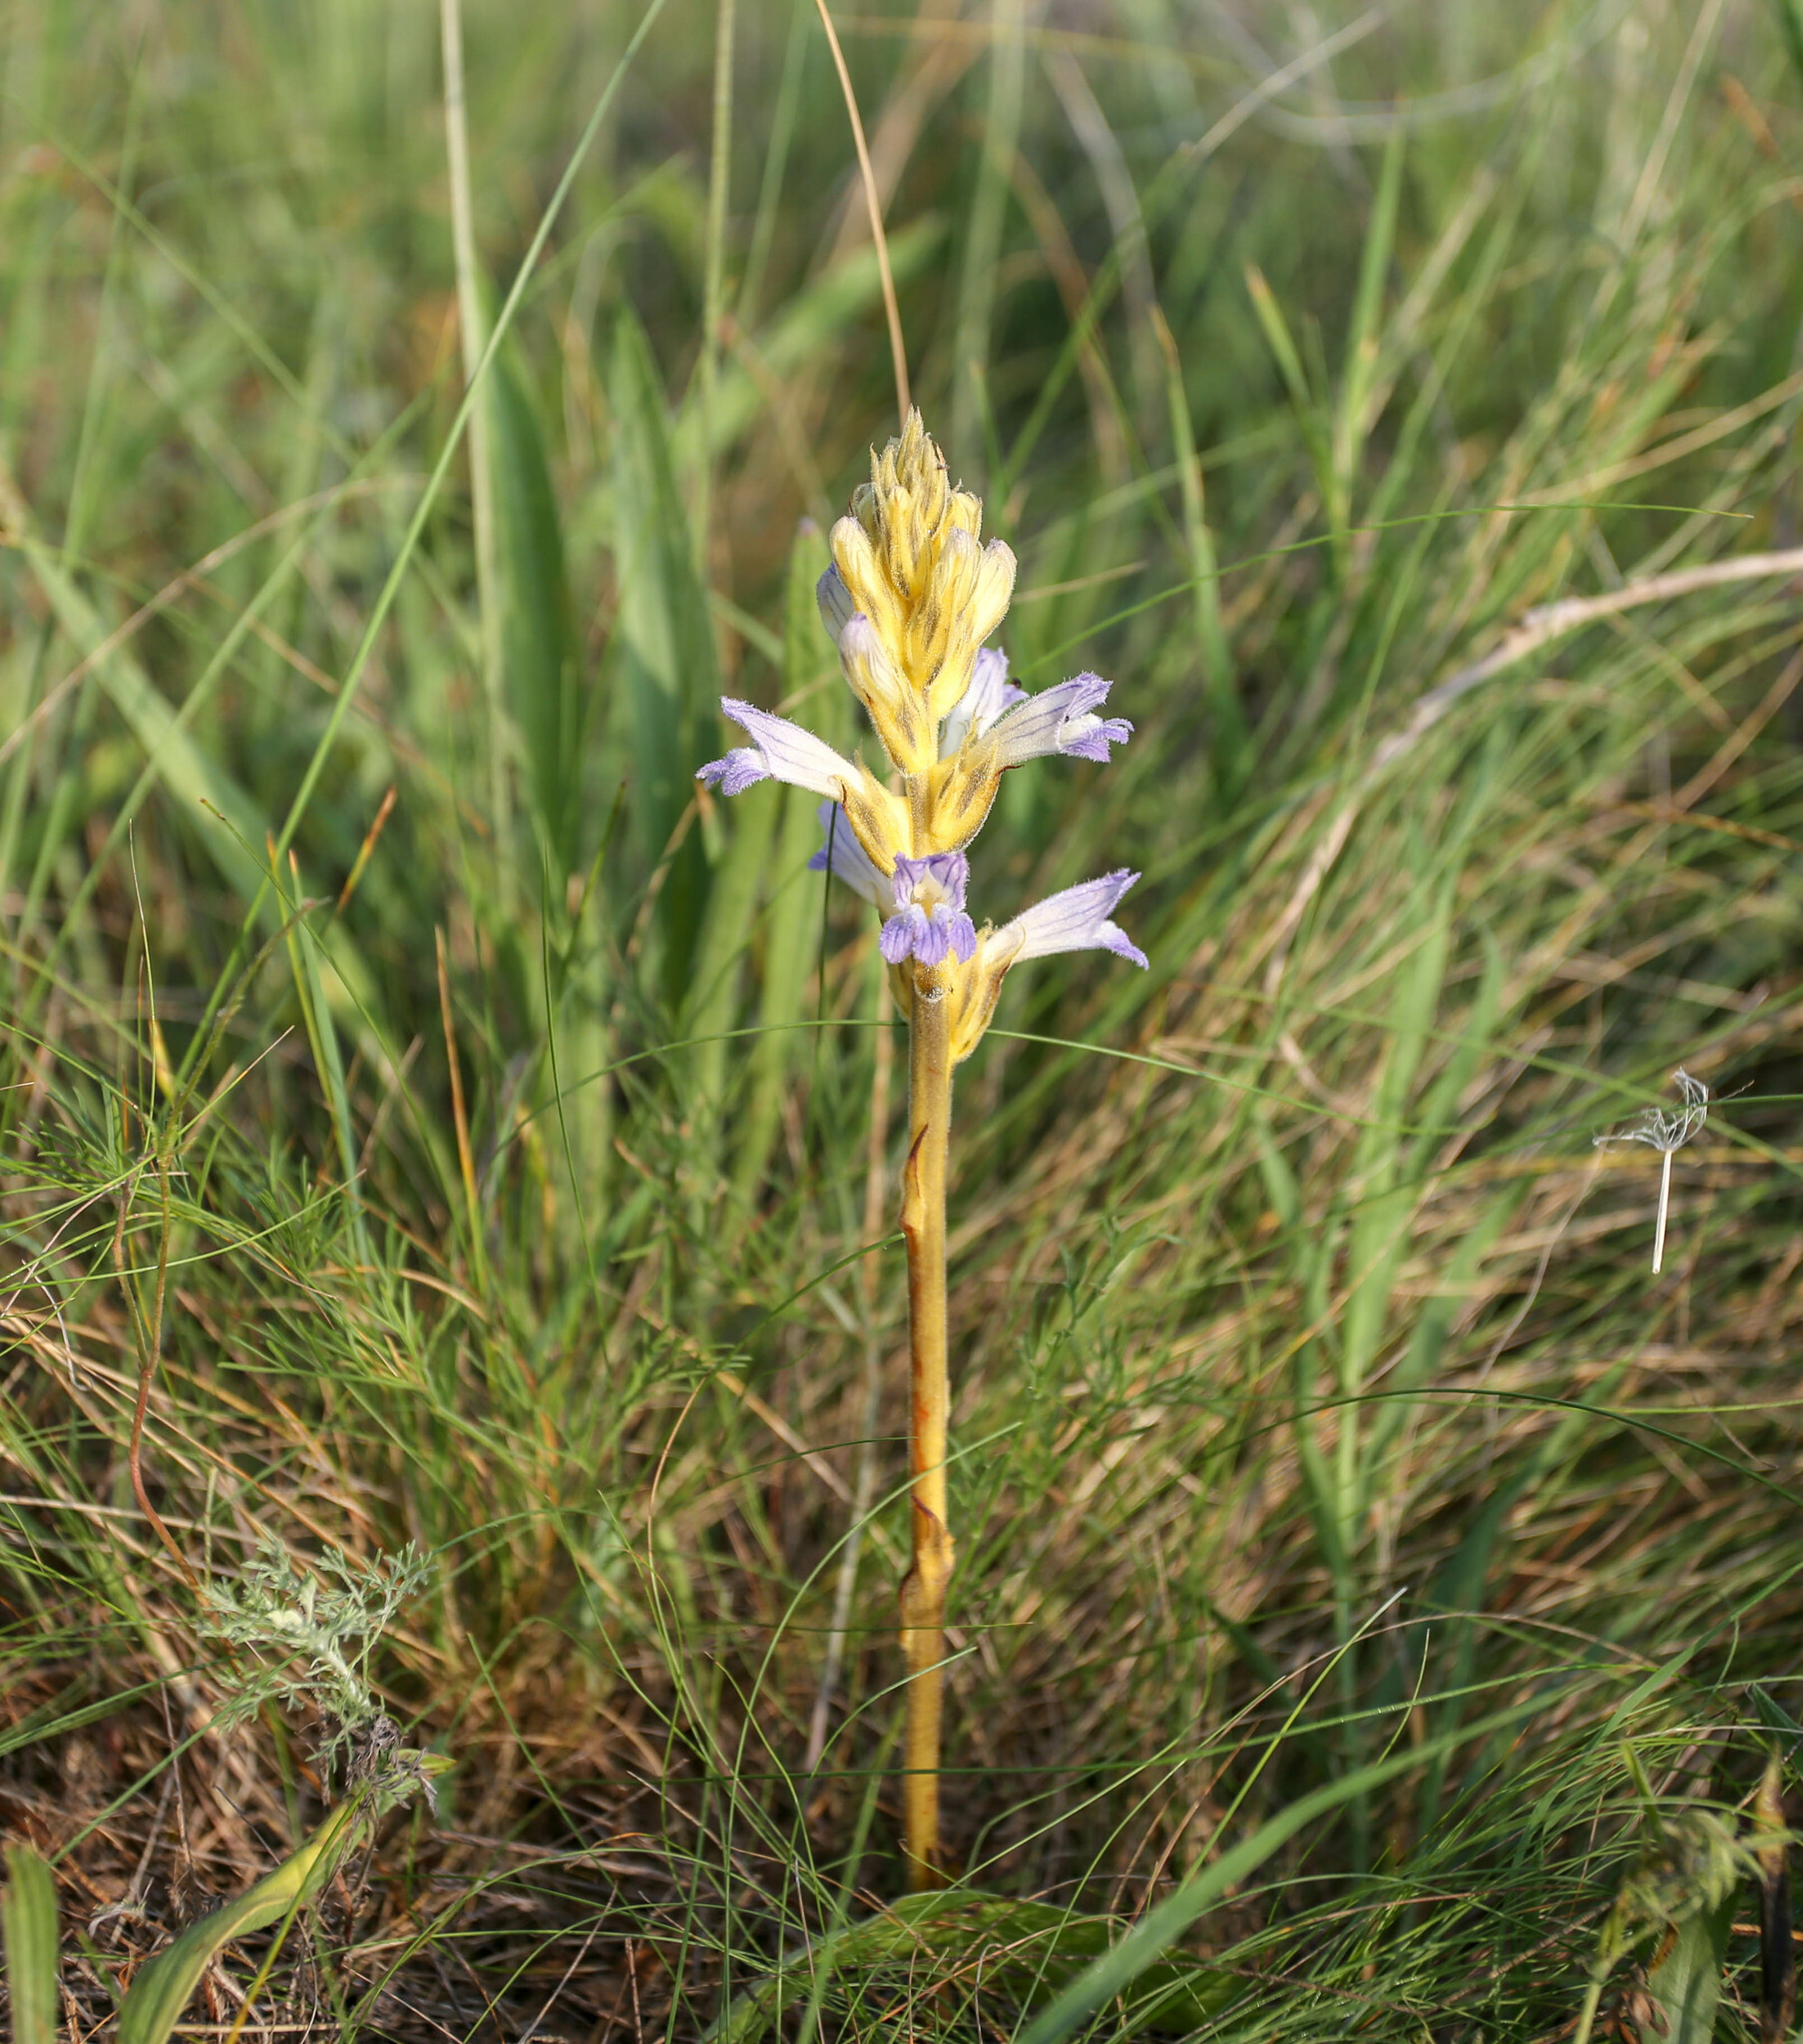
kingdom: Plantae
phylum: Tracheophyta
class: Magnoliopsida
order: Lamiales
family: Orobanchaceae
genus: Phelipanche
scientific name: Phelipanche purpurea
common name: Purple broomrape
